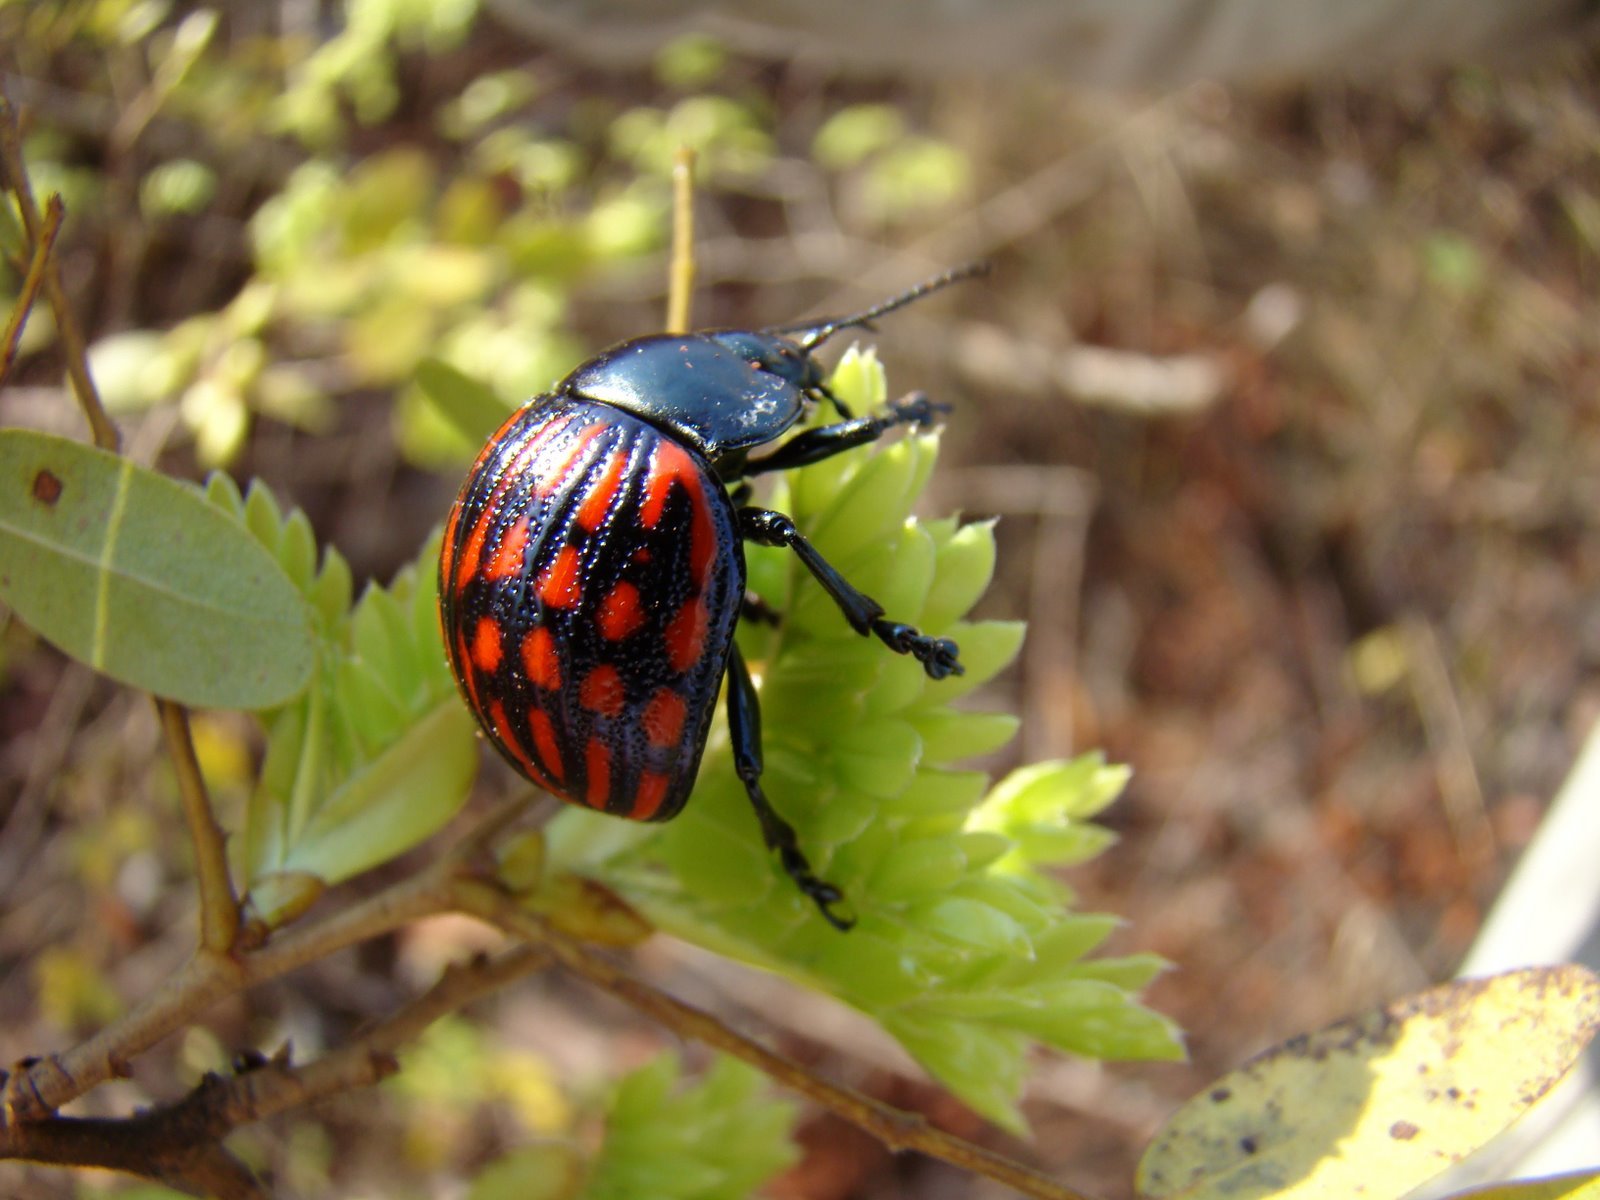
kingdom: Animalia
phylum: Arthropoda
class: Insecta
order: Coleoptera
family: Chrysomelidae
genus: Platyphora
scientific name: Platyphora
